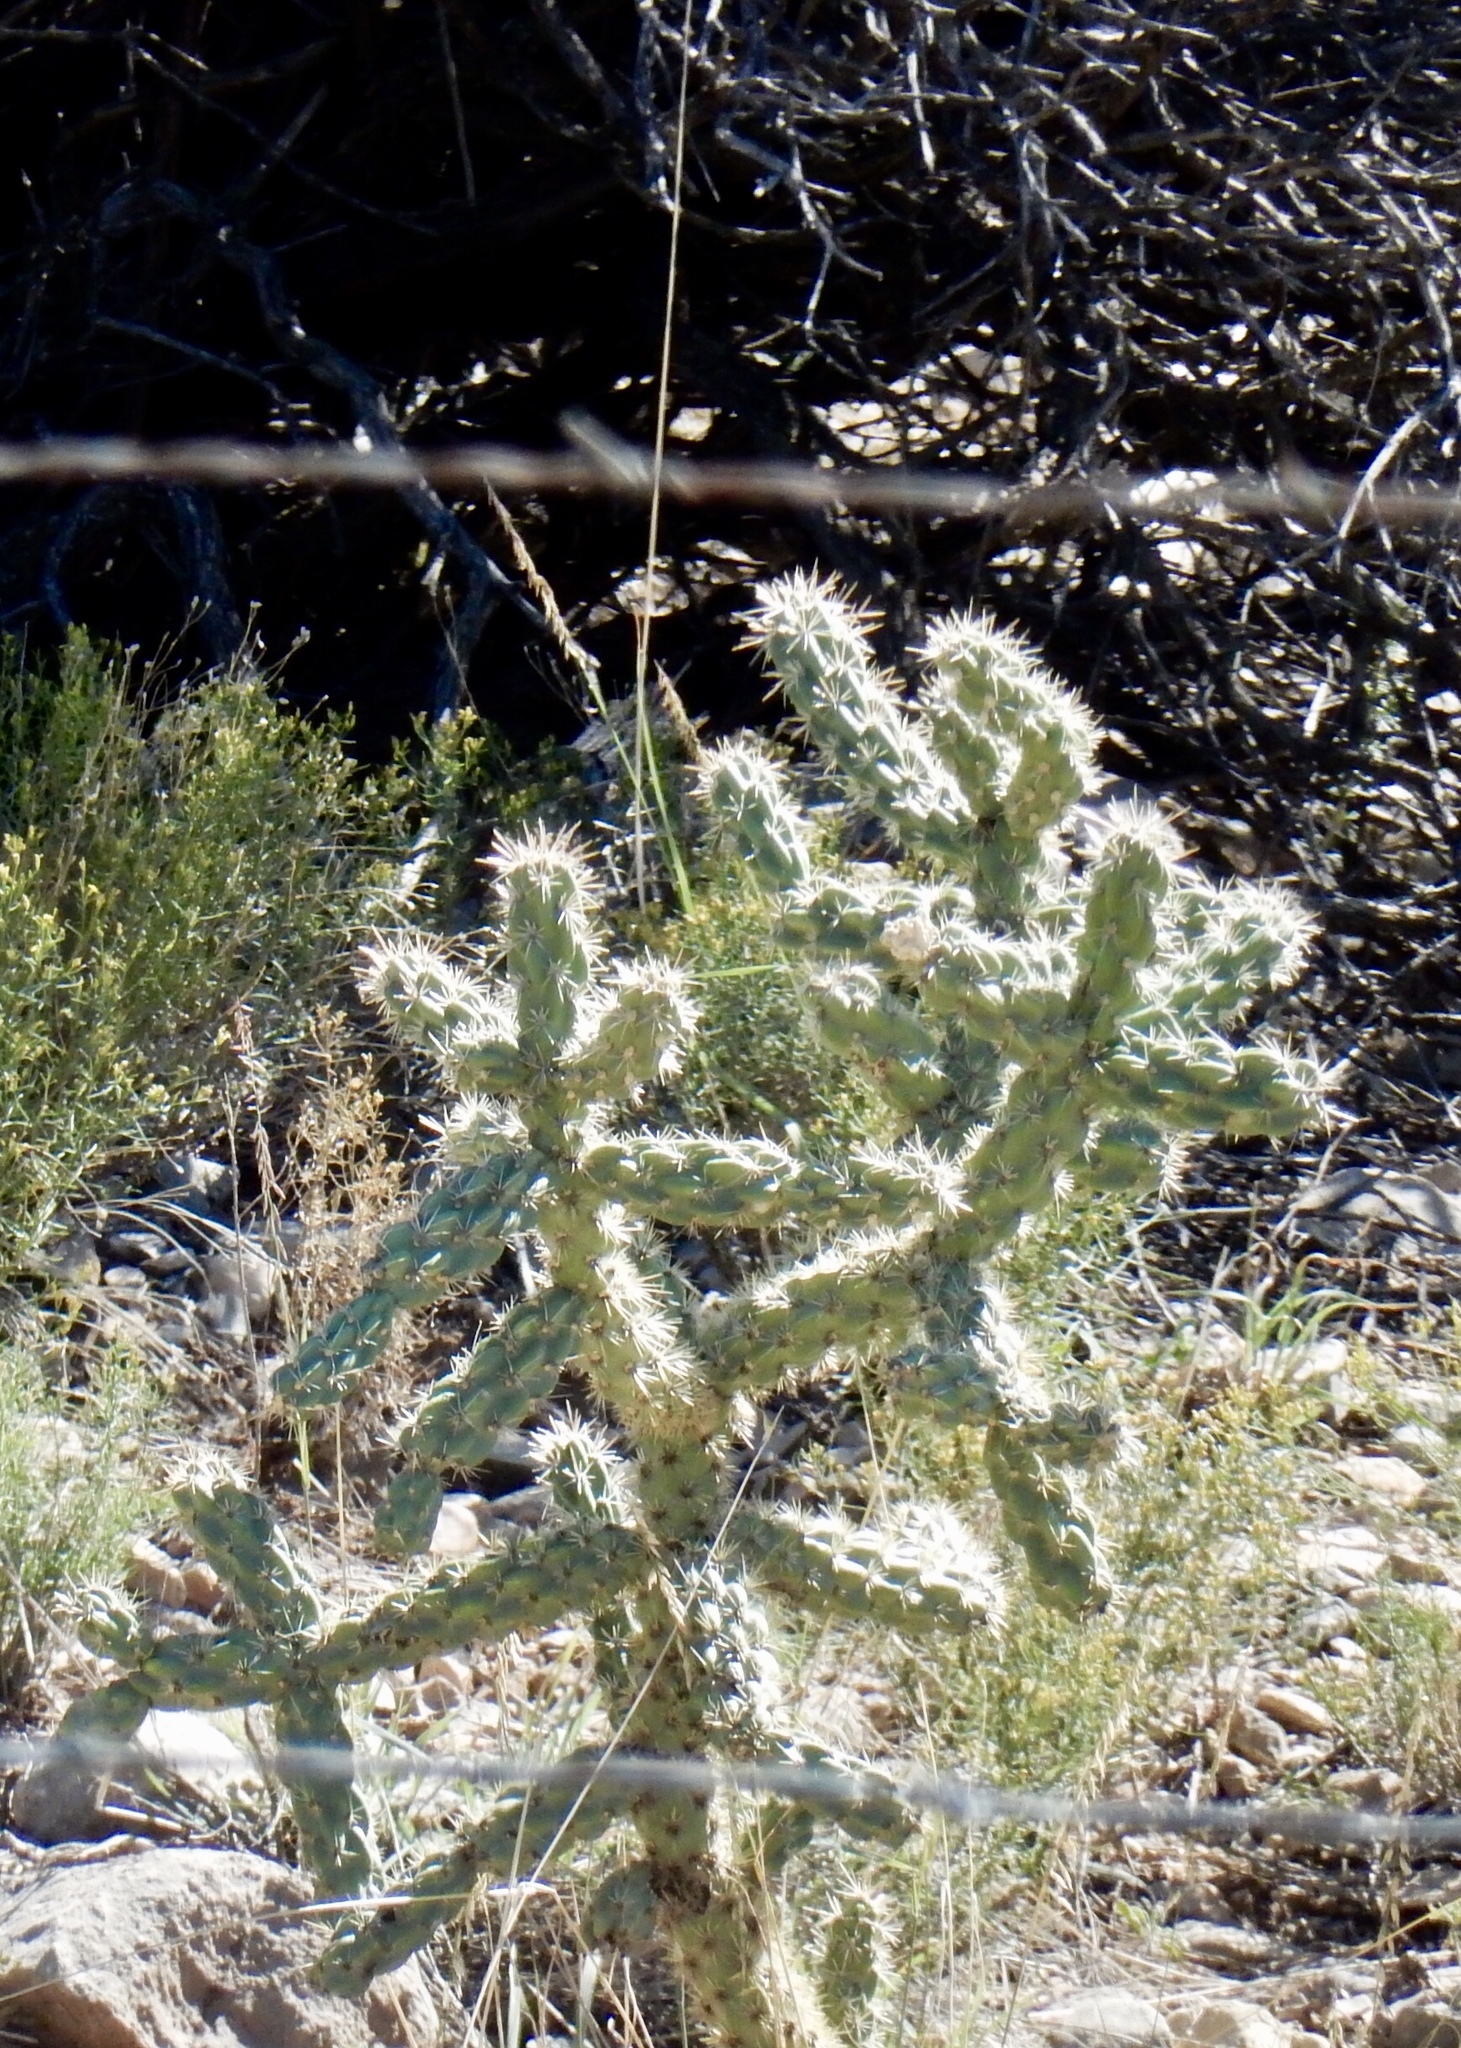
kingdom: Plantae
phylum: Tracheophyta
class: Magnoliopsida
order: Caryophyllales
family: Cactaceae
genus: Cylindropuntia
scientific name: Cylindropuntia imbricata
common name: Candelabrum cactus
